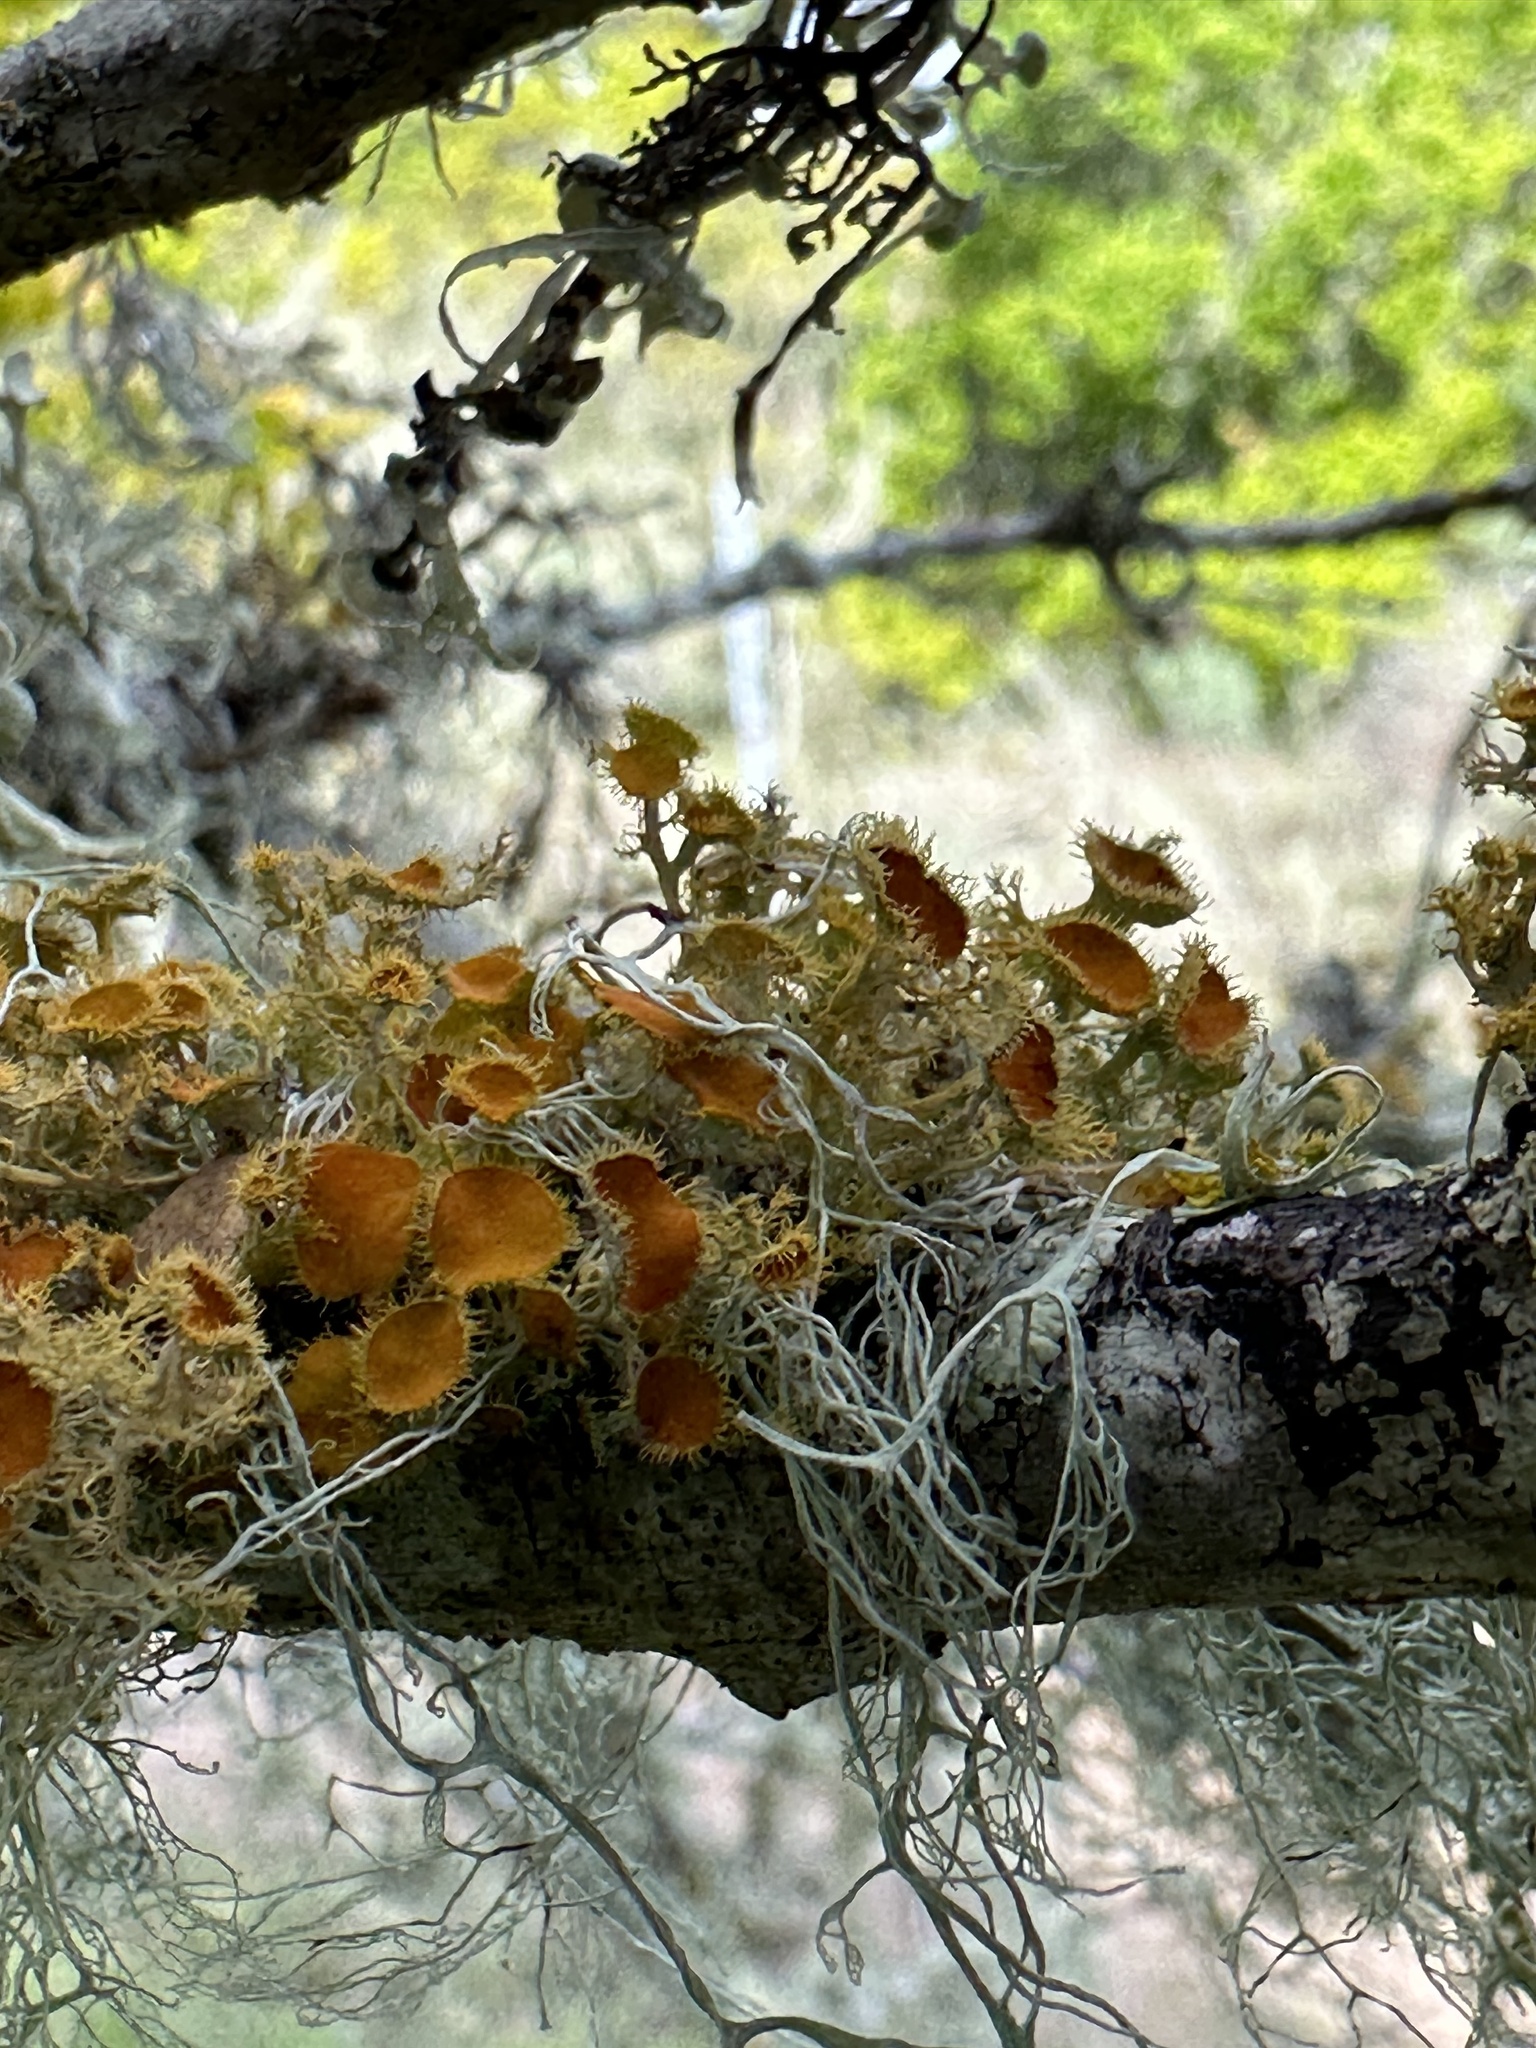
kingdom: Fungi
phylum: Ascomycota
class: Lecanoromycetes
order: Teloschistales
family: Teloschistaceae
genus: Niorma
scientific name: Niorma chrysophthalma
